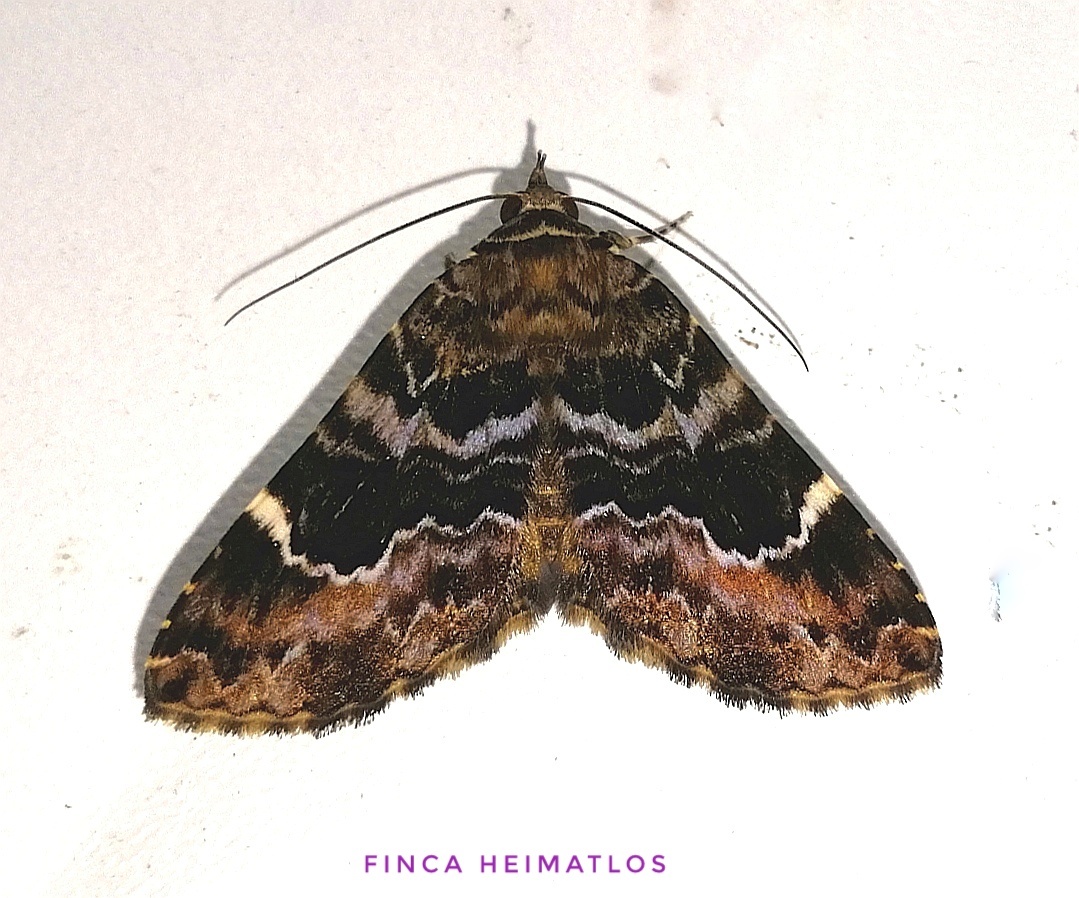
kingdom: Animalia
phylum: Arthropoda
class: Insecta
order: Lepidoptera
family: Erebidae
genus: Acolasis
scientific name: Acolasis tanais
